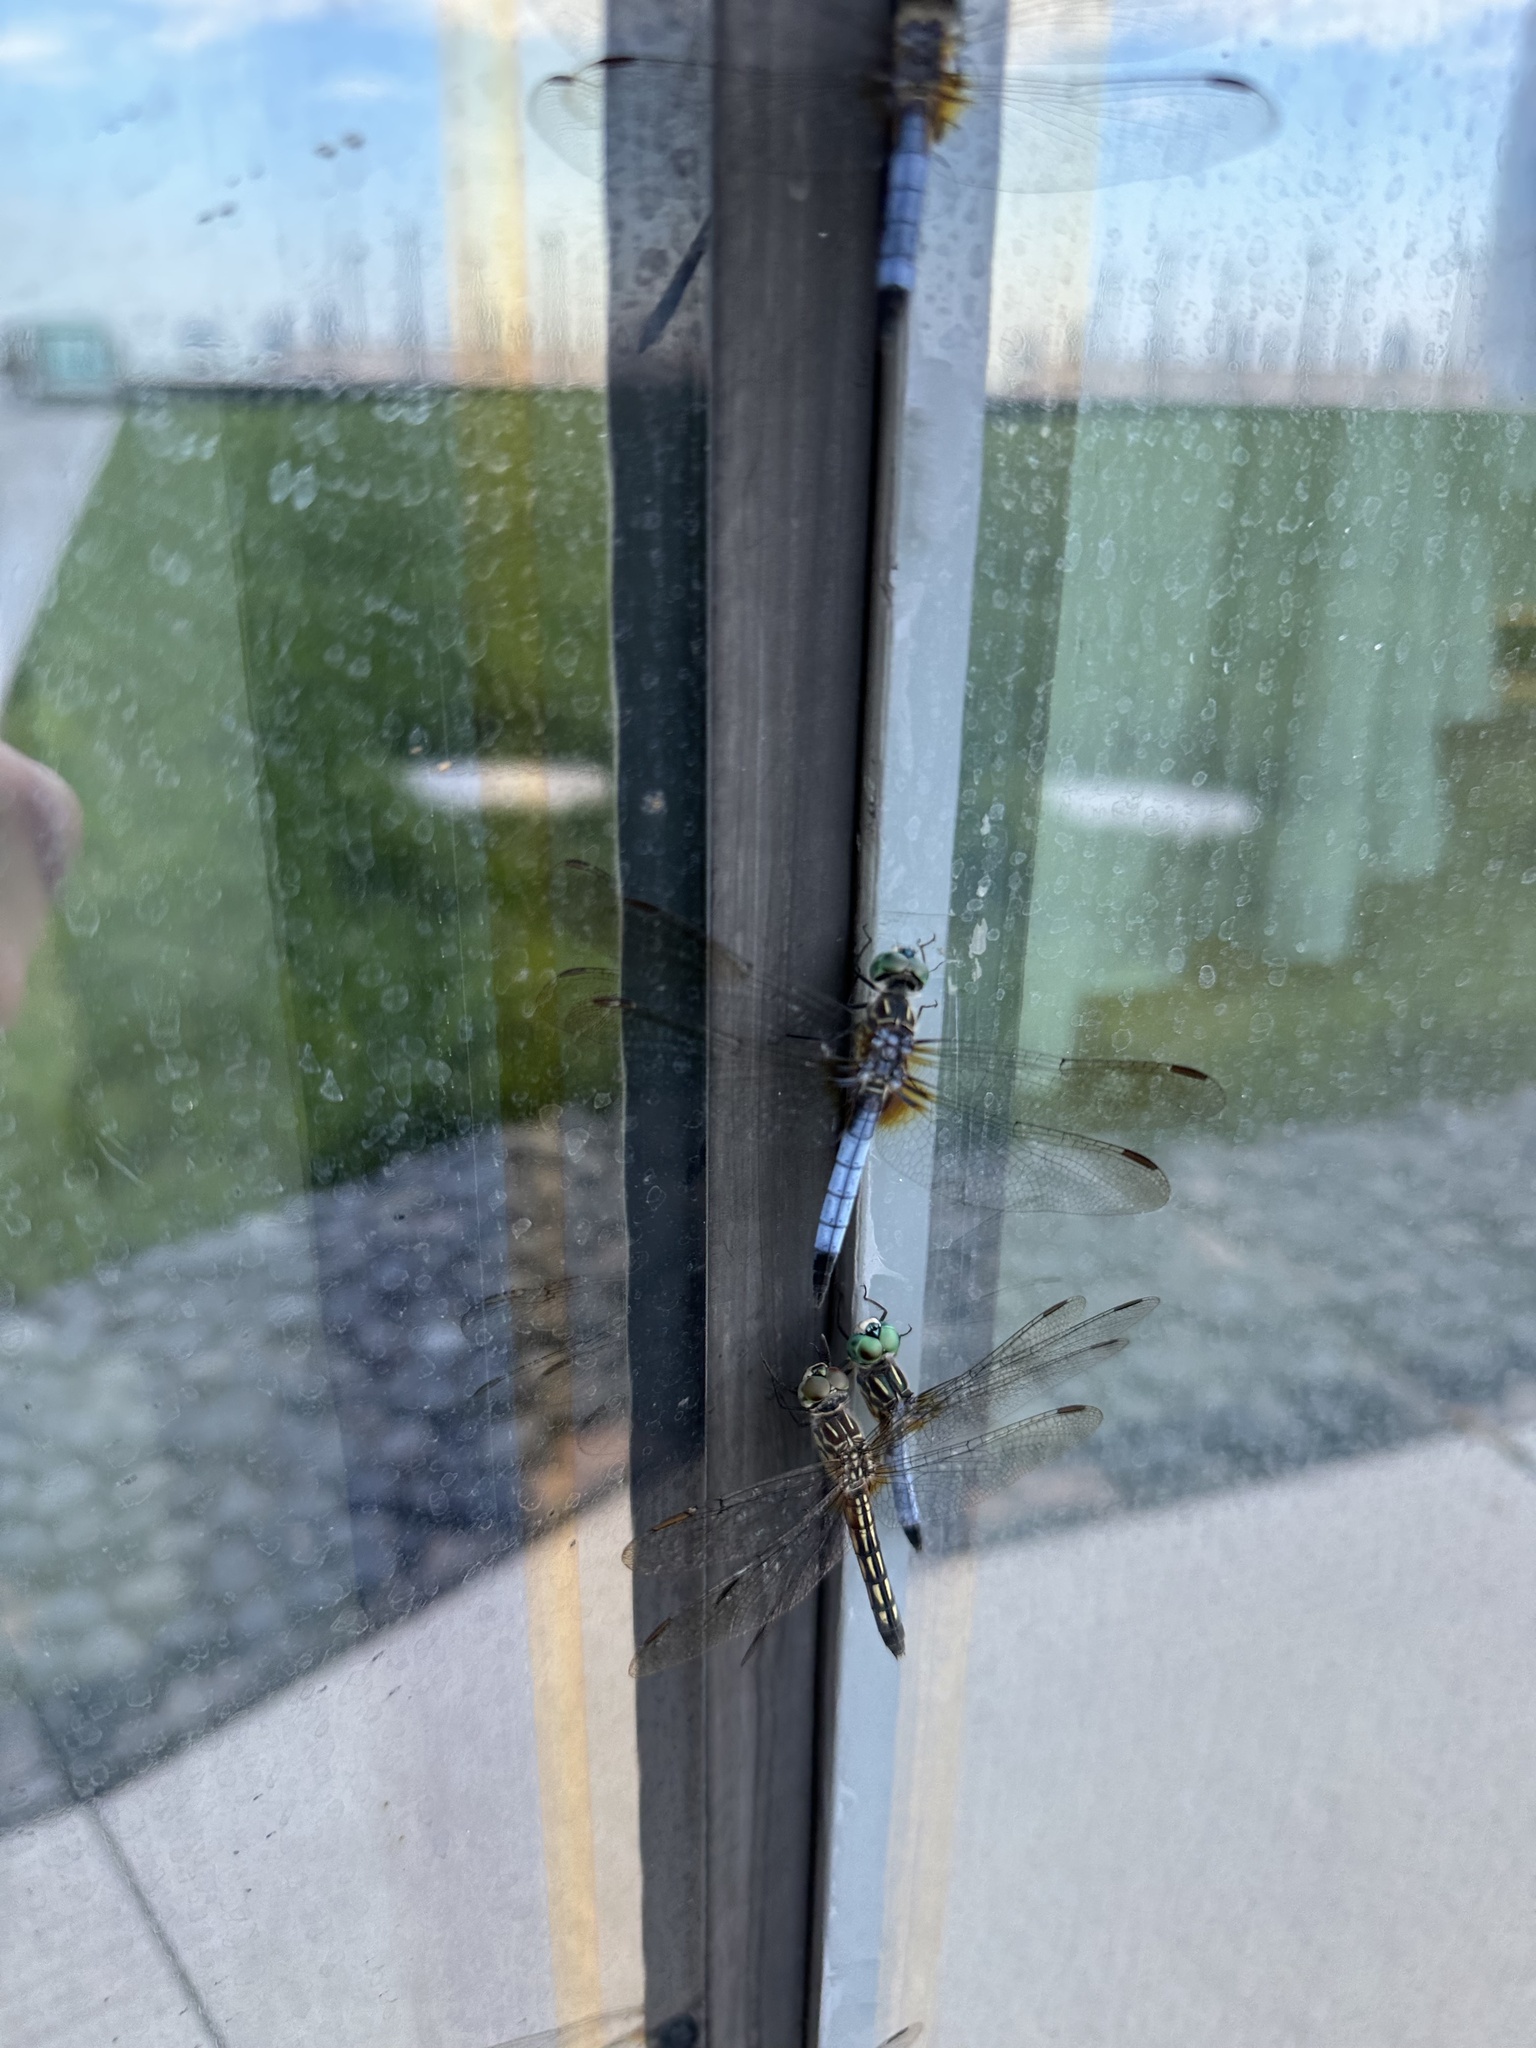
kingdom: Animalia
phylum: Arthropoda
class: Insecta
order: Odonata
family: Libellulidae
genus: Pachydiplax
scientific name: Pachydiplax longipennis
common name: Blue dasher
